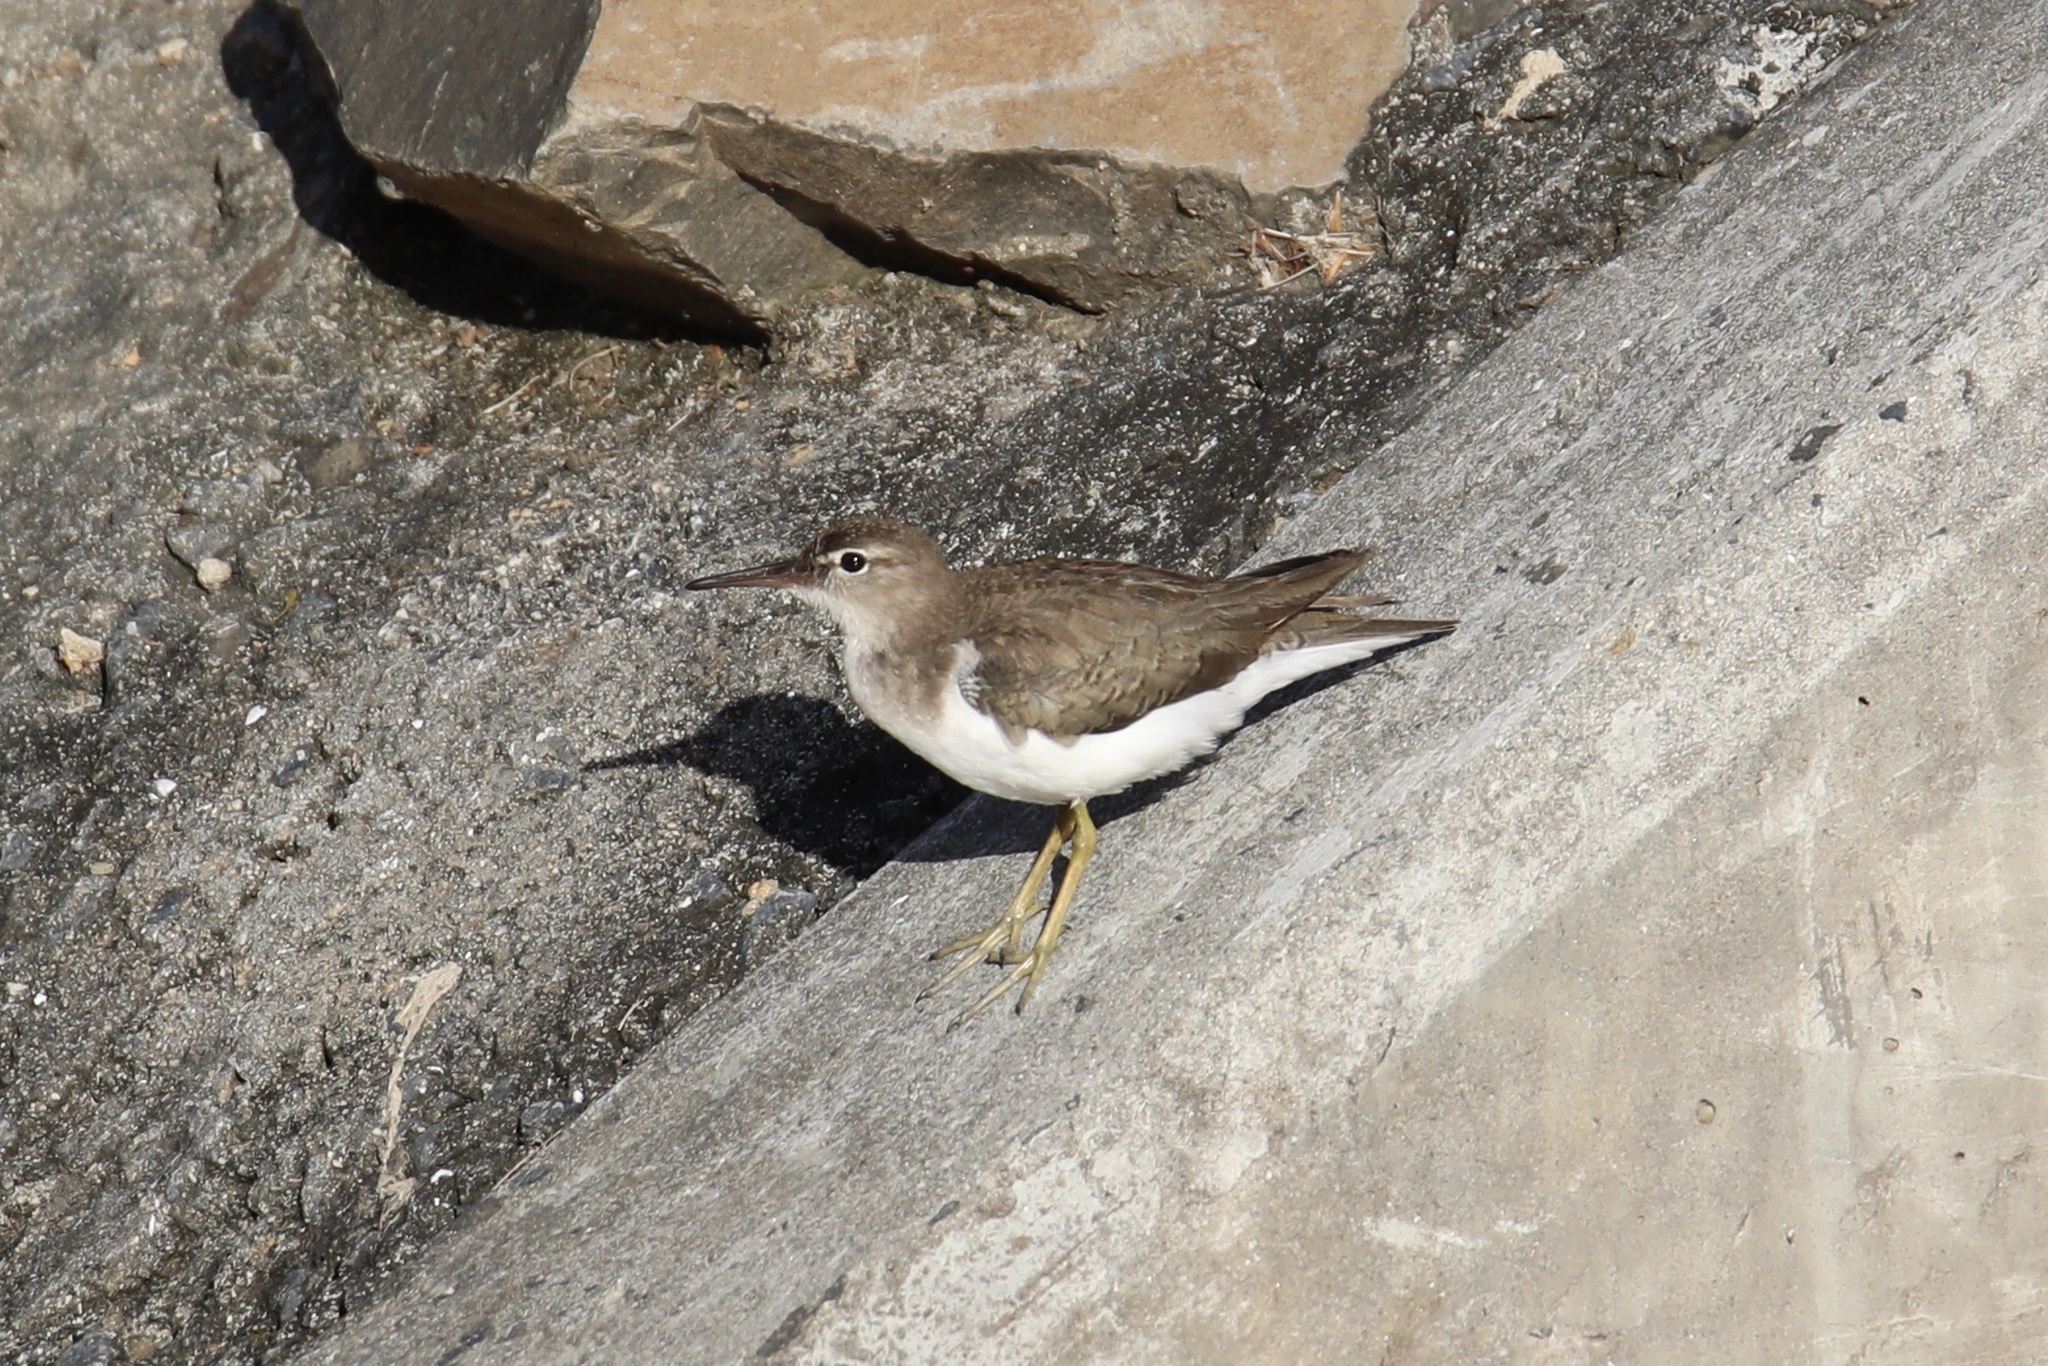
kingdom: Animalia
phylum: Chordata
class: Aves
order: Charadriiformes
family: Scolopacidae
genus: Actitis
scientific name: Actitis macularius
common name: Spotted sandpiper
